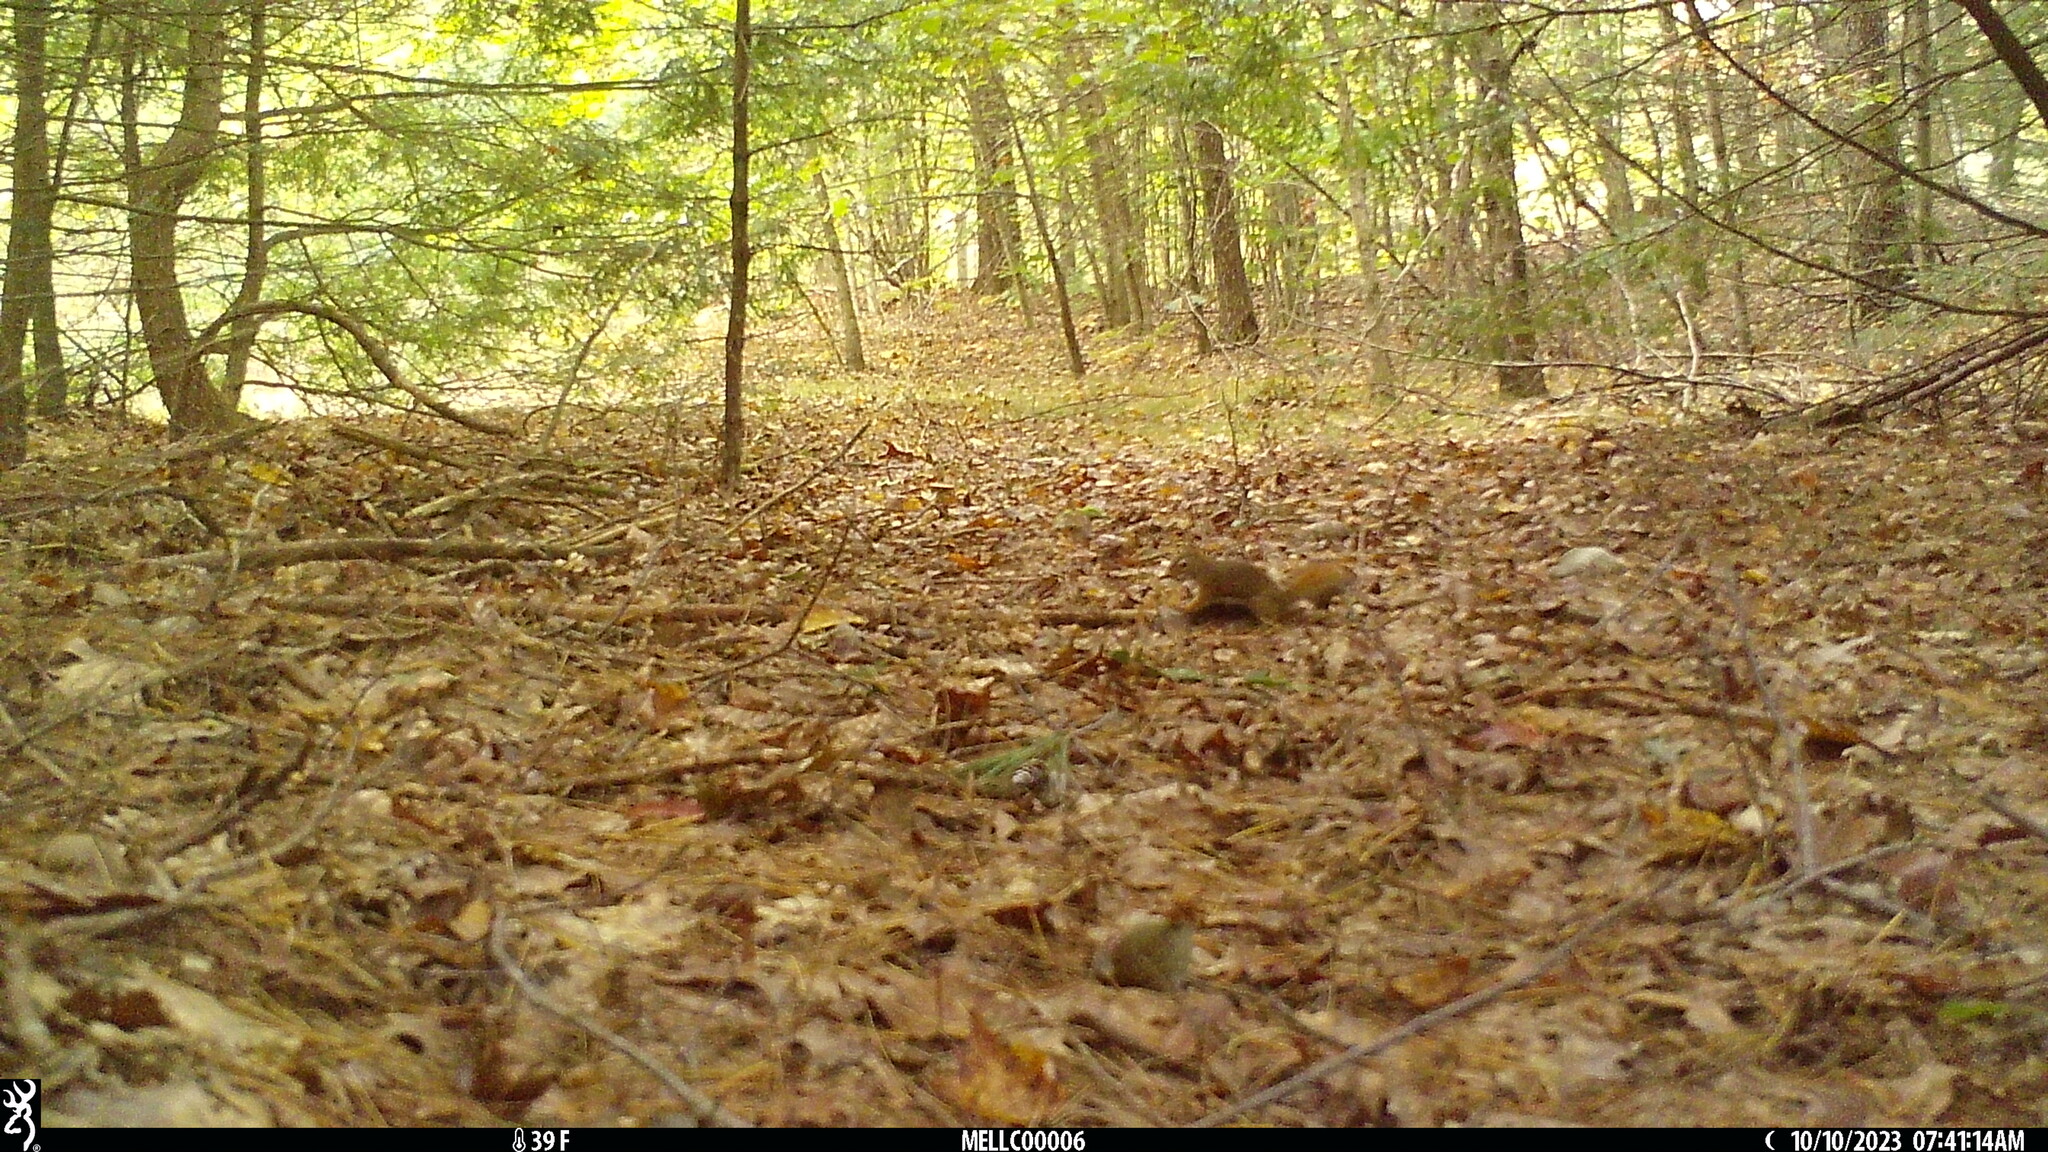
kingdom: Animalia
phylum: Chordata
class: Mammalia
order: Rodentia
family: Sciuridae
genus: Tamiasciurus
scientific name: Tamiasciurus hudsonicus
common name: Red squirrel
